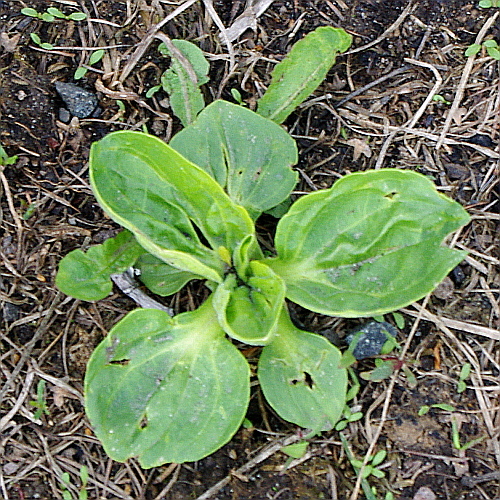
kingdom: Plantae
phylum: Tracheophyta
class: Magnoliopsida
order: Lamiales
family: Plantaginaceae
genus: Plantago
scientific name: Plantago major
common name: Common plantain
